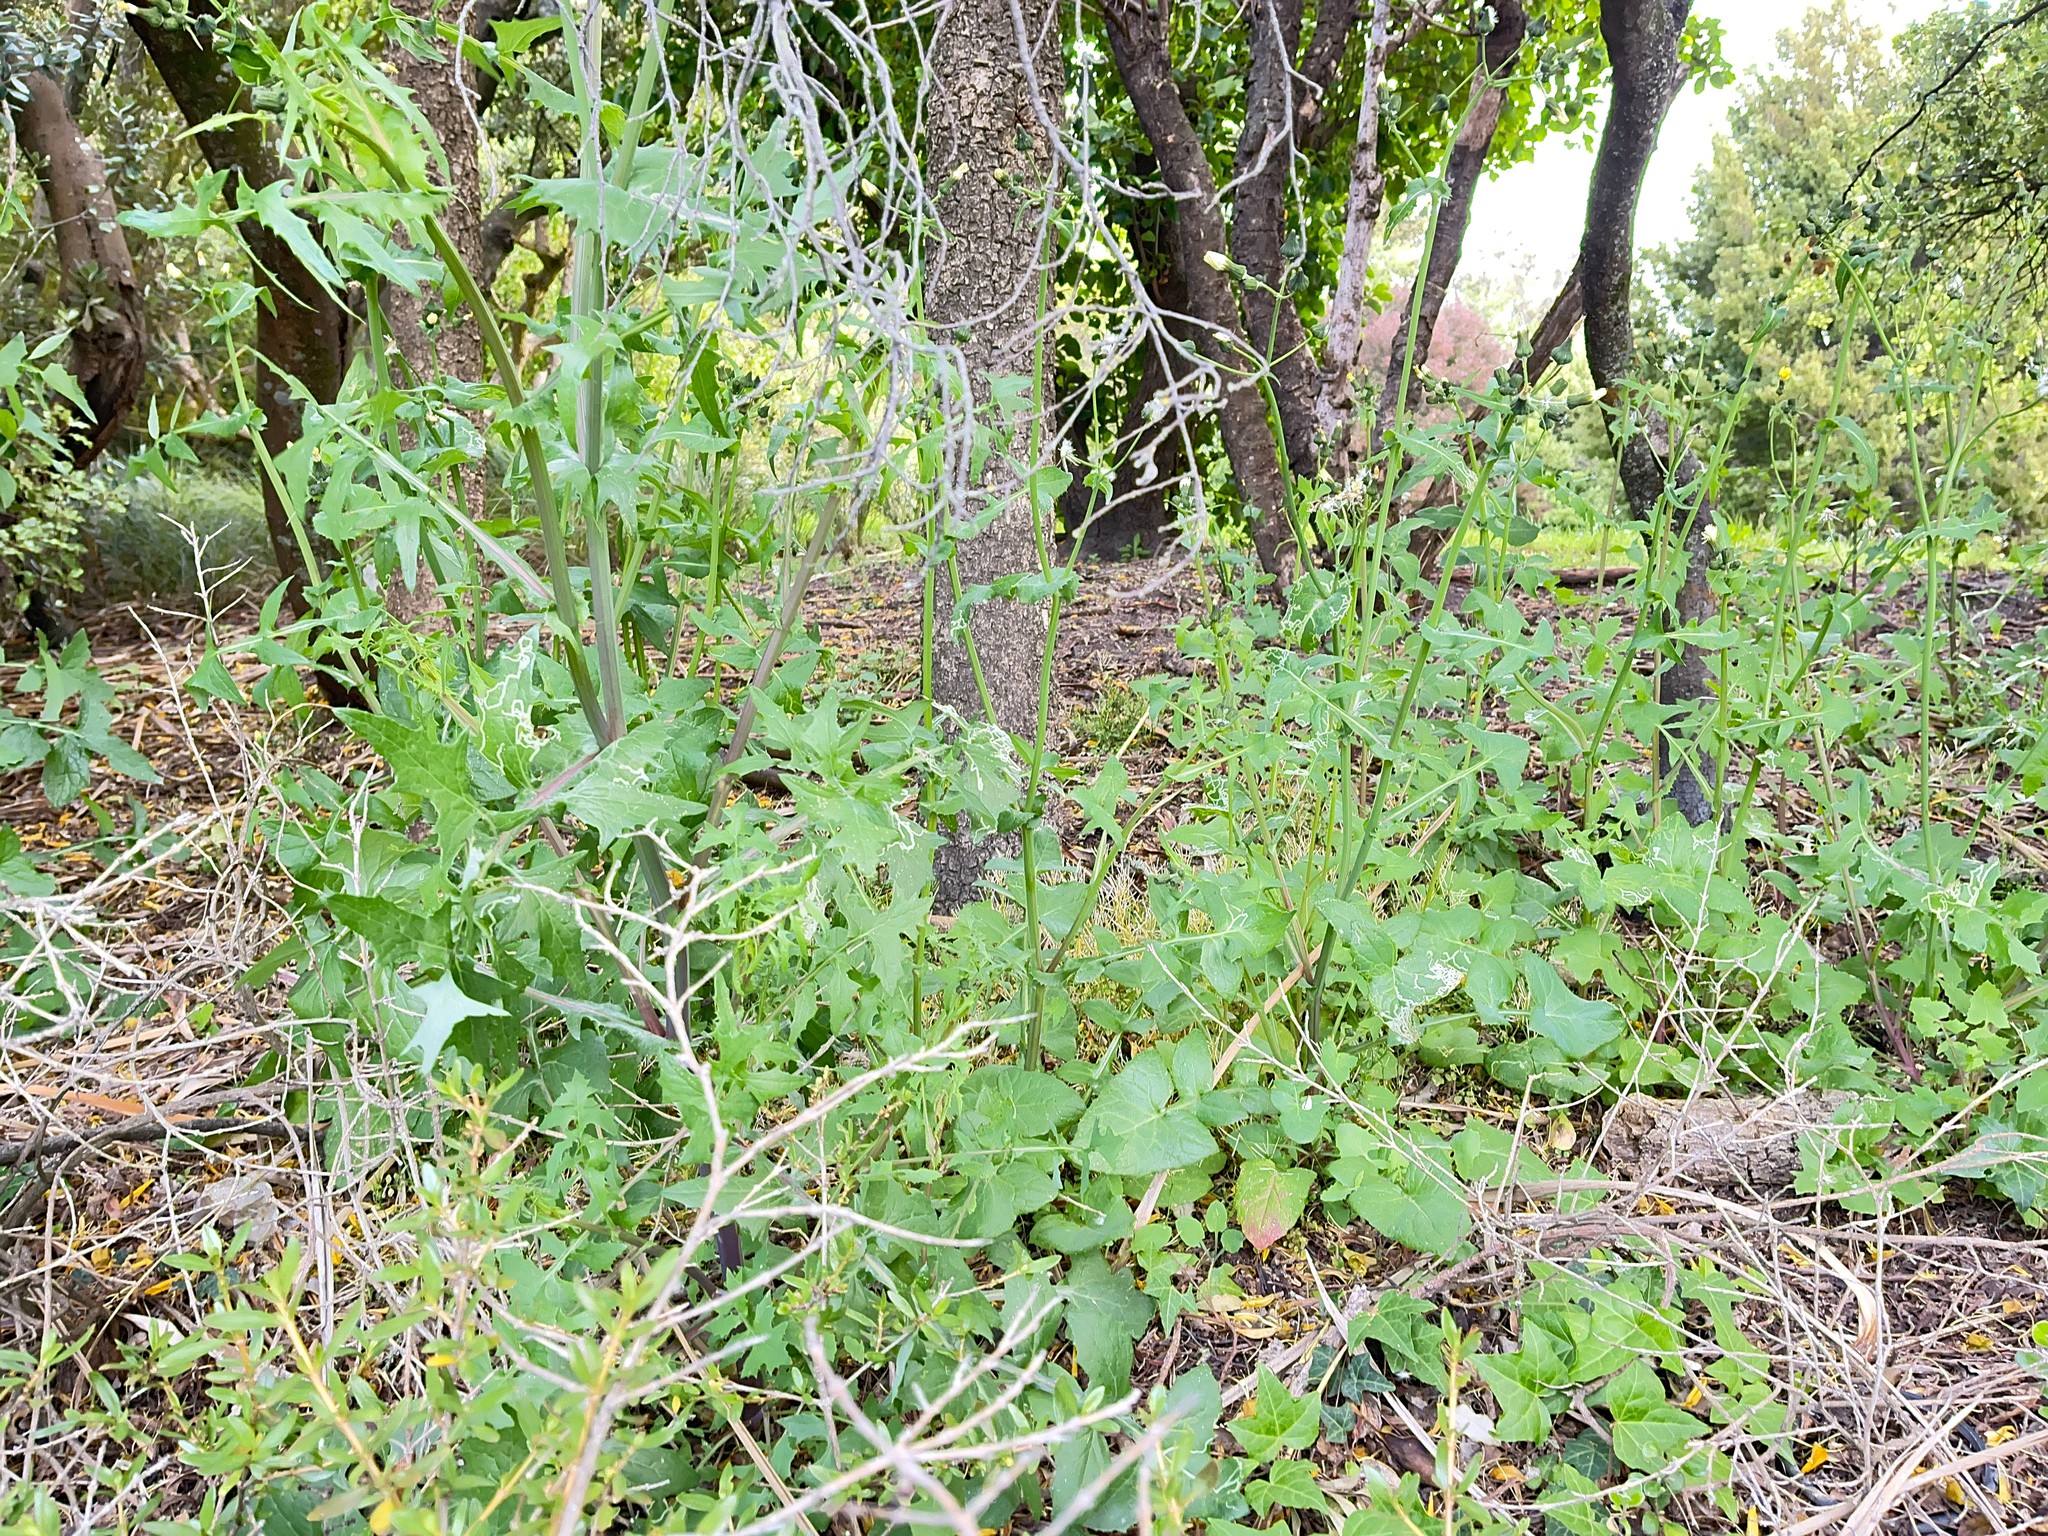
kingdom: Plantae
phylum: Tracheophyta
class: Magnoliopsida
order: Asterales
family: Asteraceae
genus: Sonchus
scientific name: Sonchus oleraceus
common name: Common sowthistle
